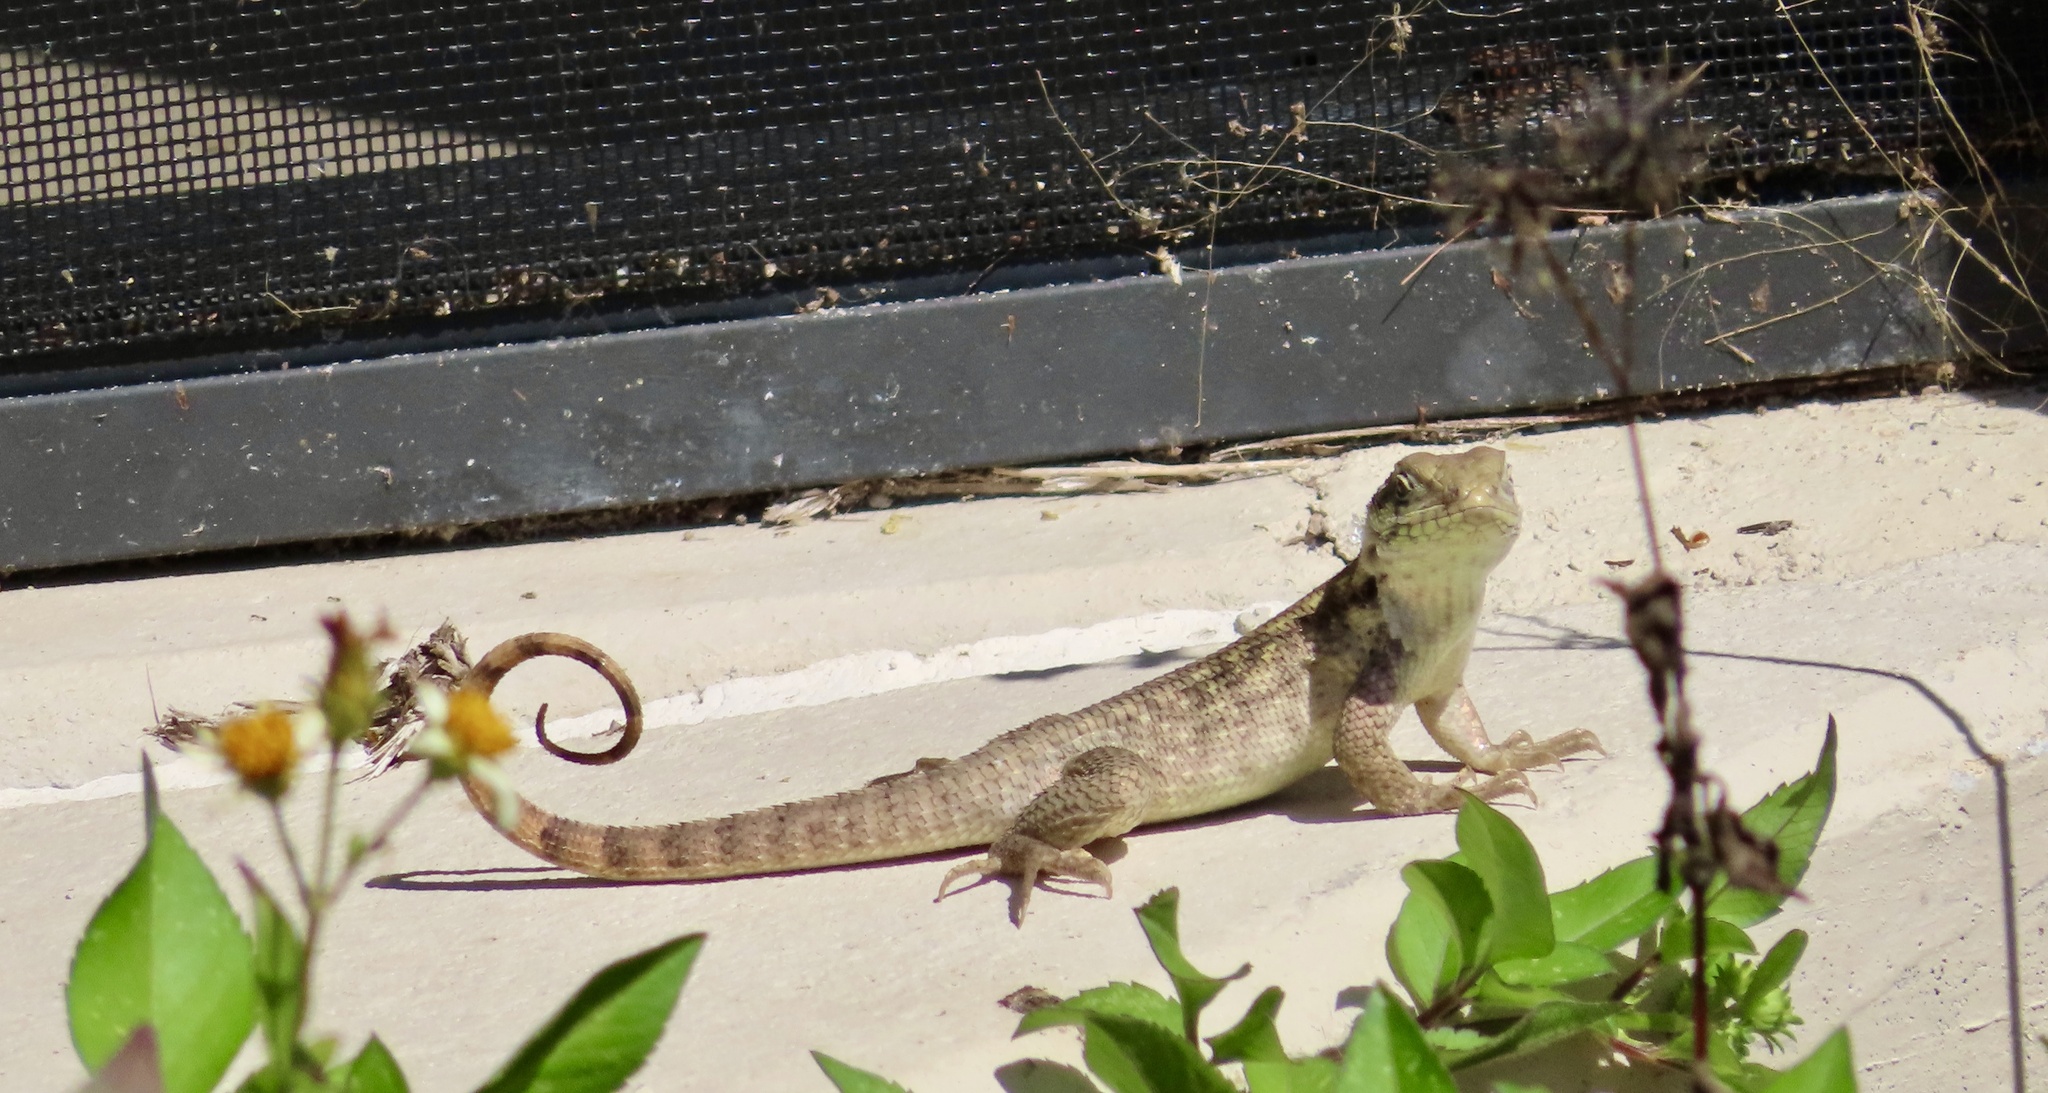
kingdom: Animalia
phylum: Chordata
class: Squamata
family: Leiocephalidae
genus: Leiocephalus
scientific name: Leiocephalus carinatus
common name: Northern curly-tailed lizard
